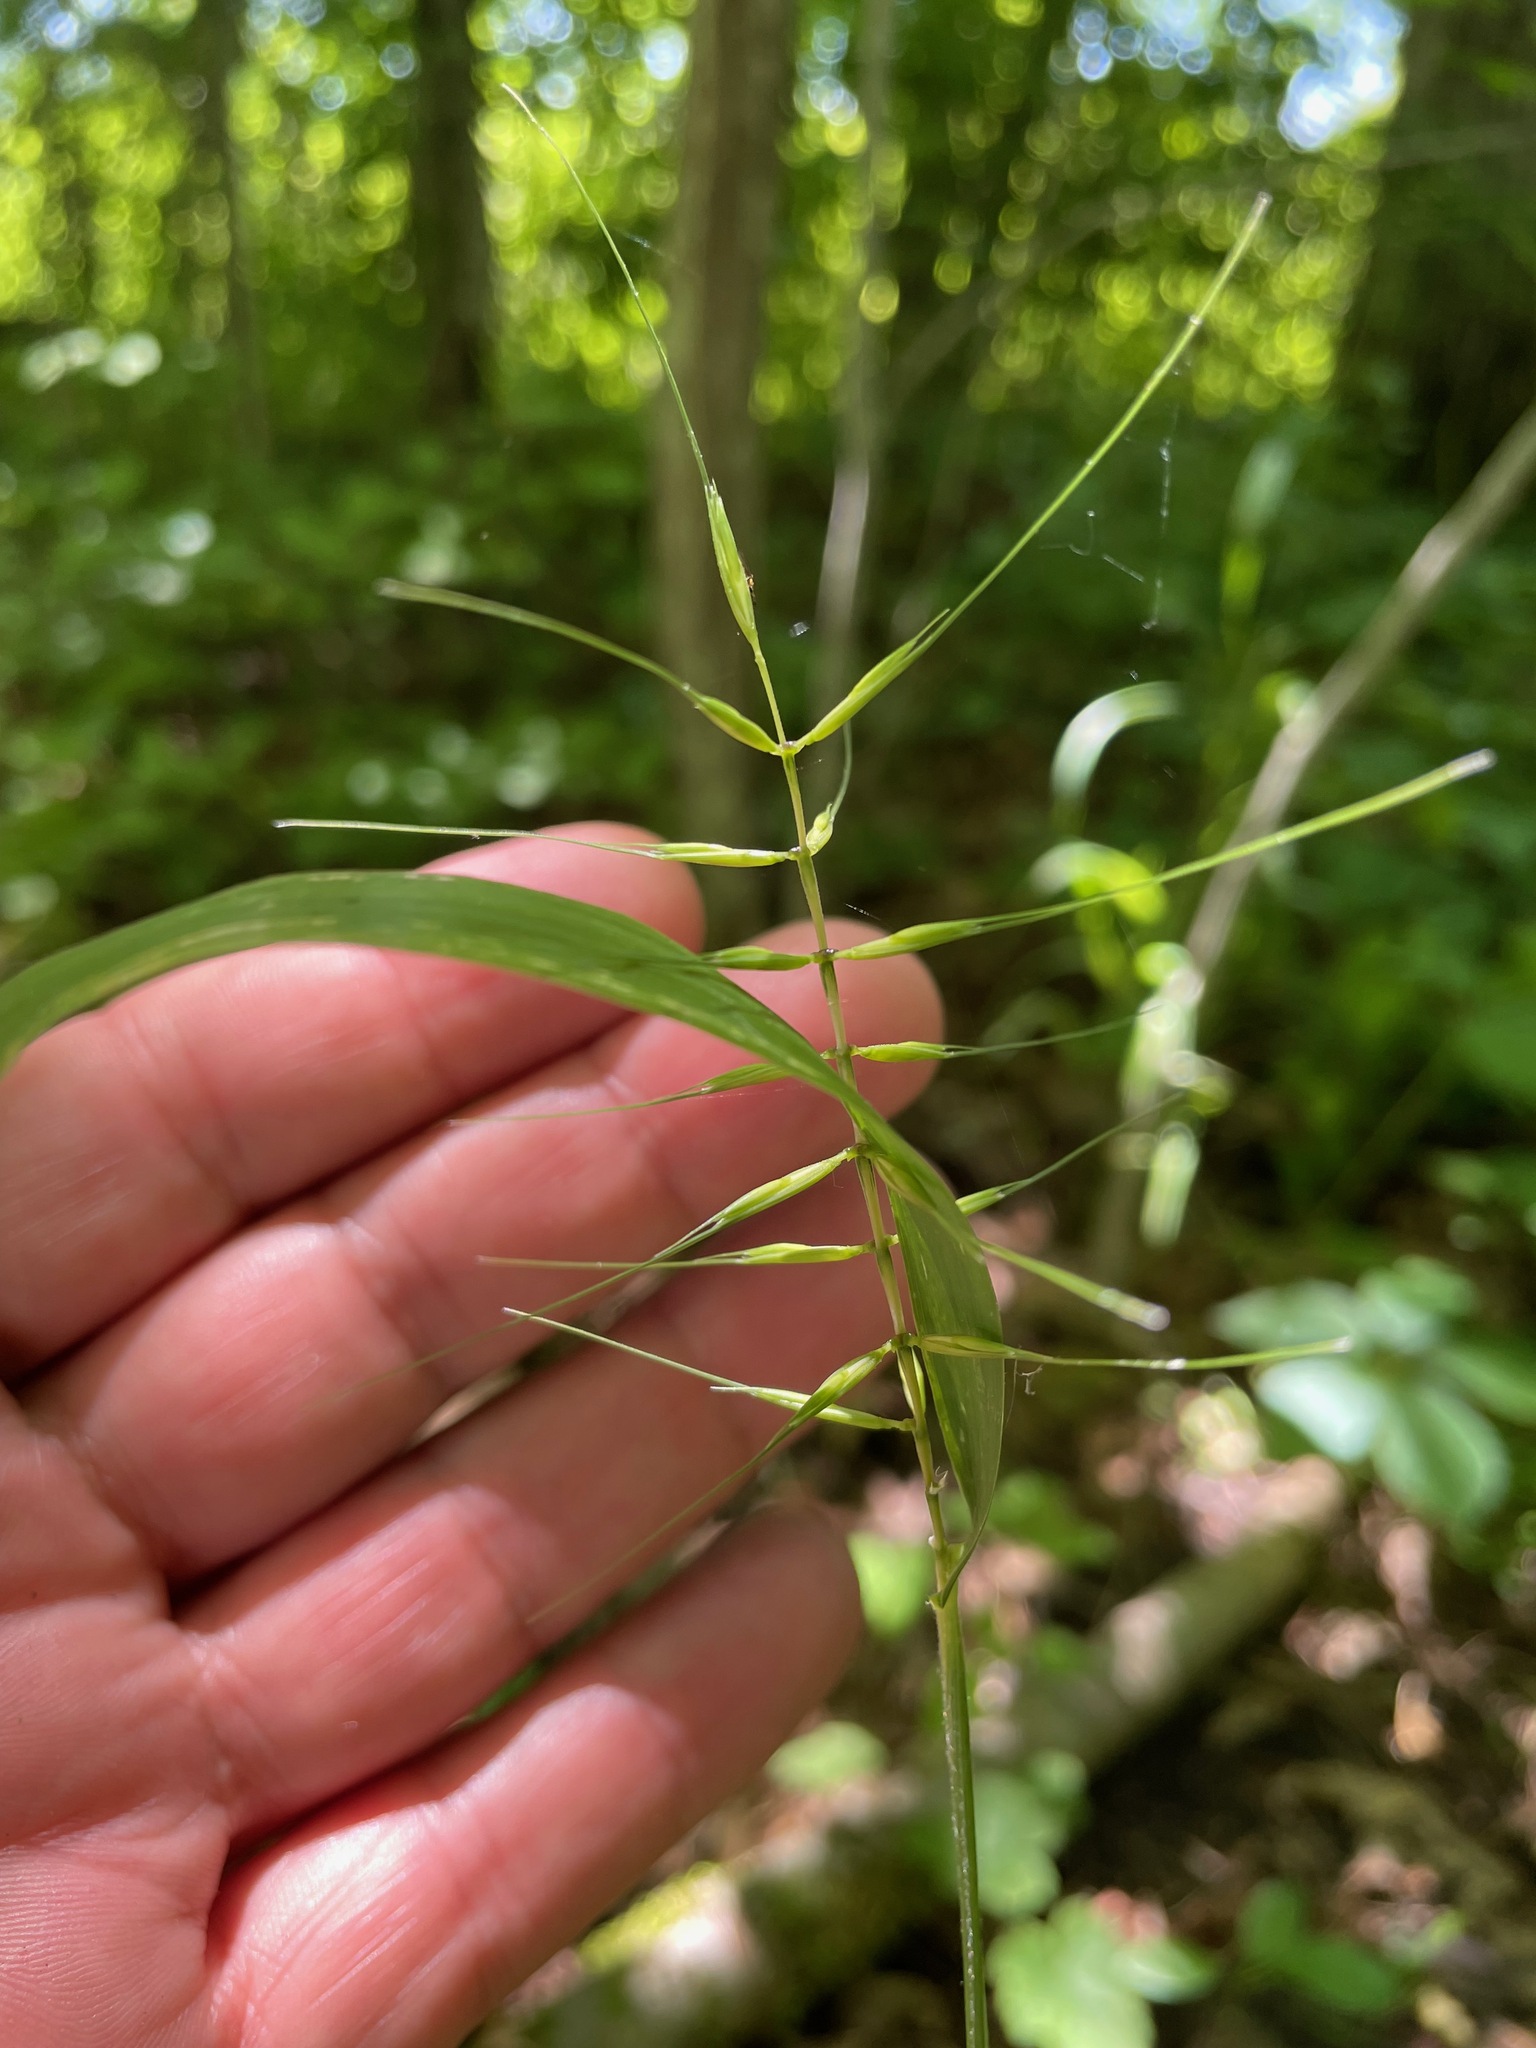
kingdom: Plantae
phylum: Tracheophyta
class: Liliopsida
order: Poales
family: Poaceae
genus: Elymus
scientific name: Elymus hystrix
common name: Bottlebrush grass
